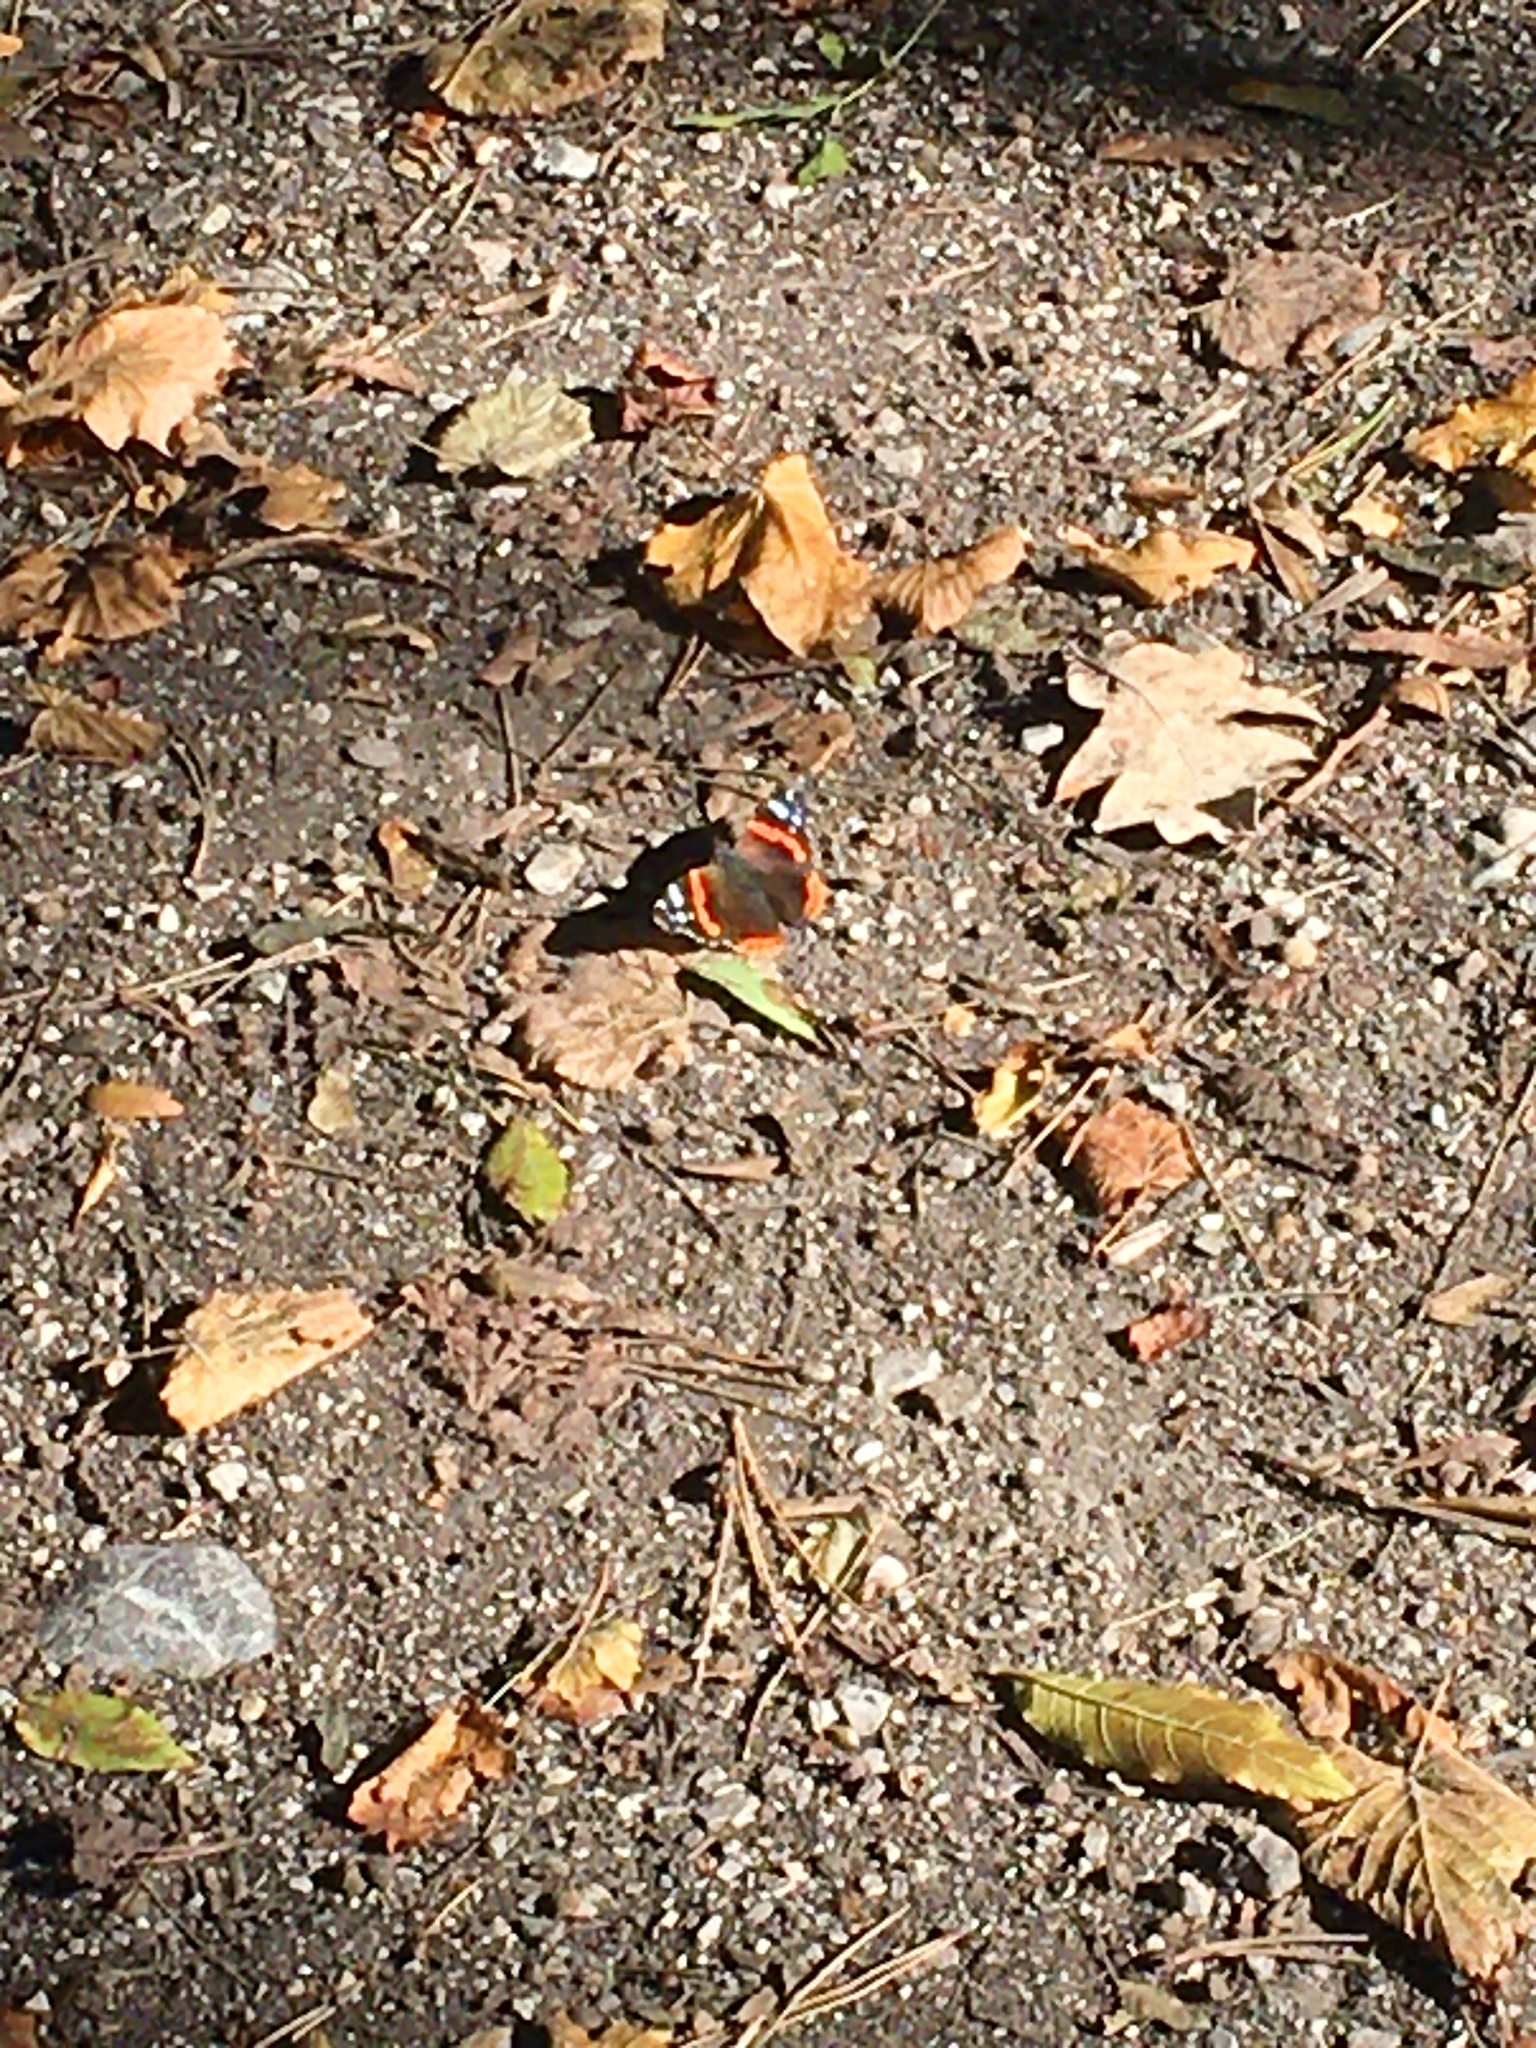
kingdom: Animalia
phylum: Arthropoda
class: Insecta
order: Lepidoptera
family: Nymphalidae
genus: Vanessa
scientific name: Vanessa atalanta
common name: Red admiral
